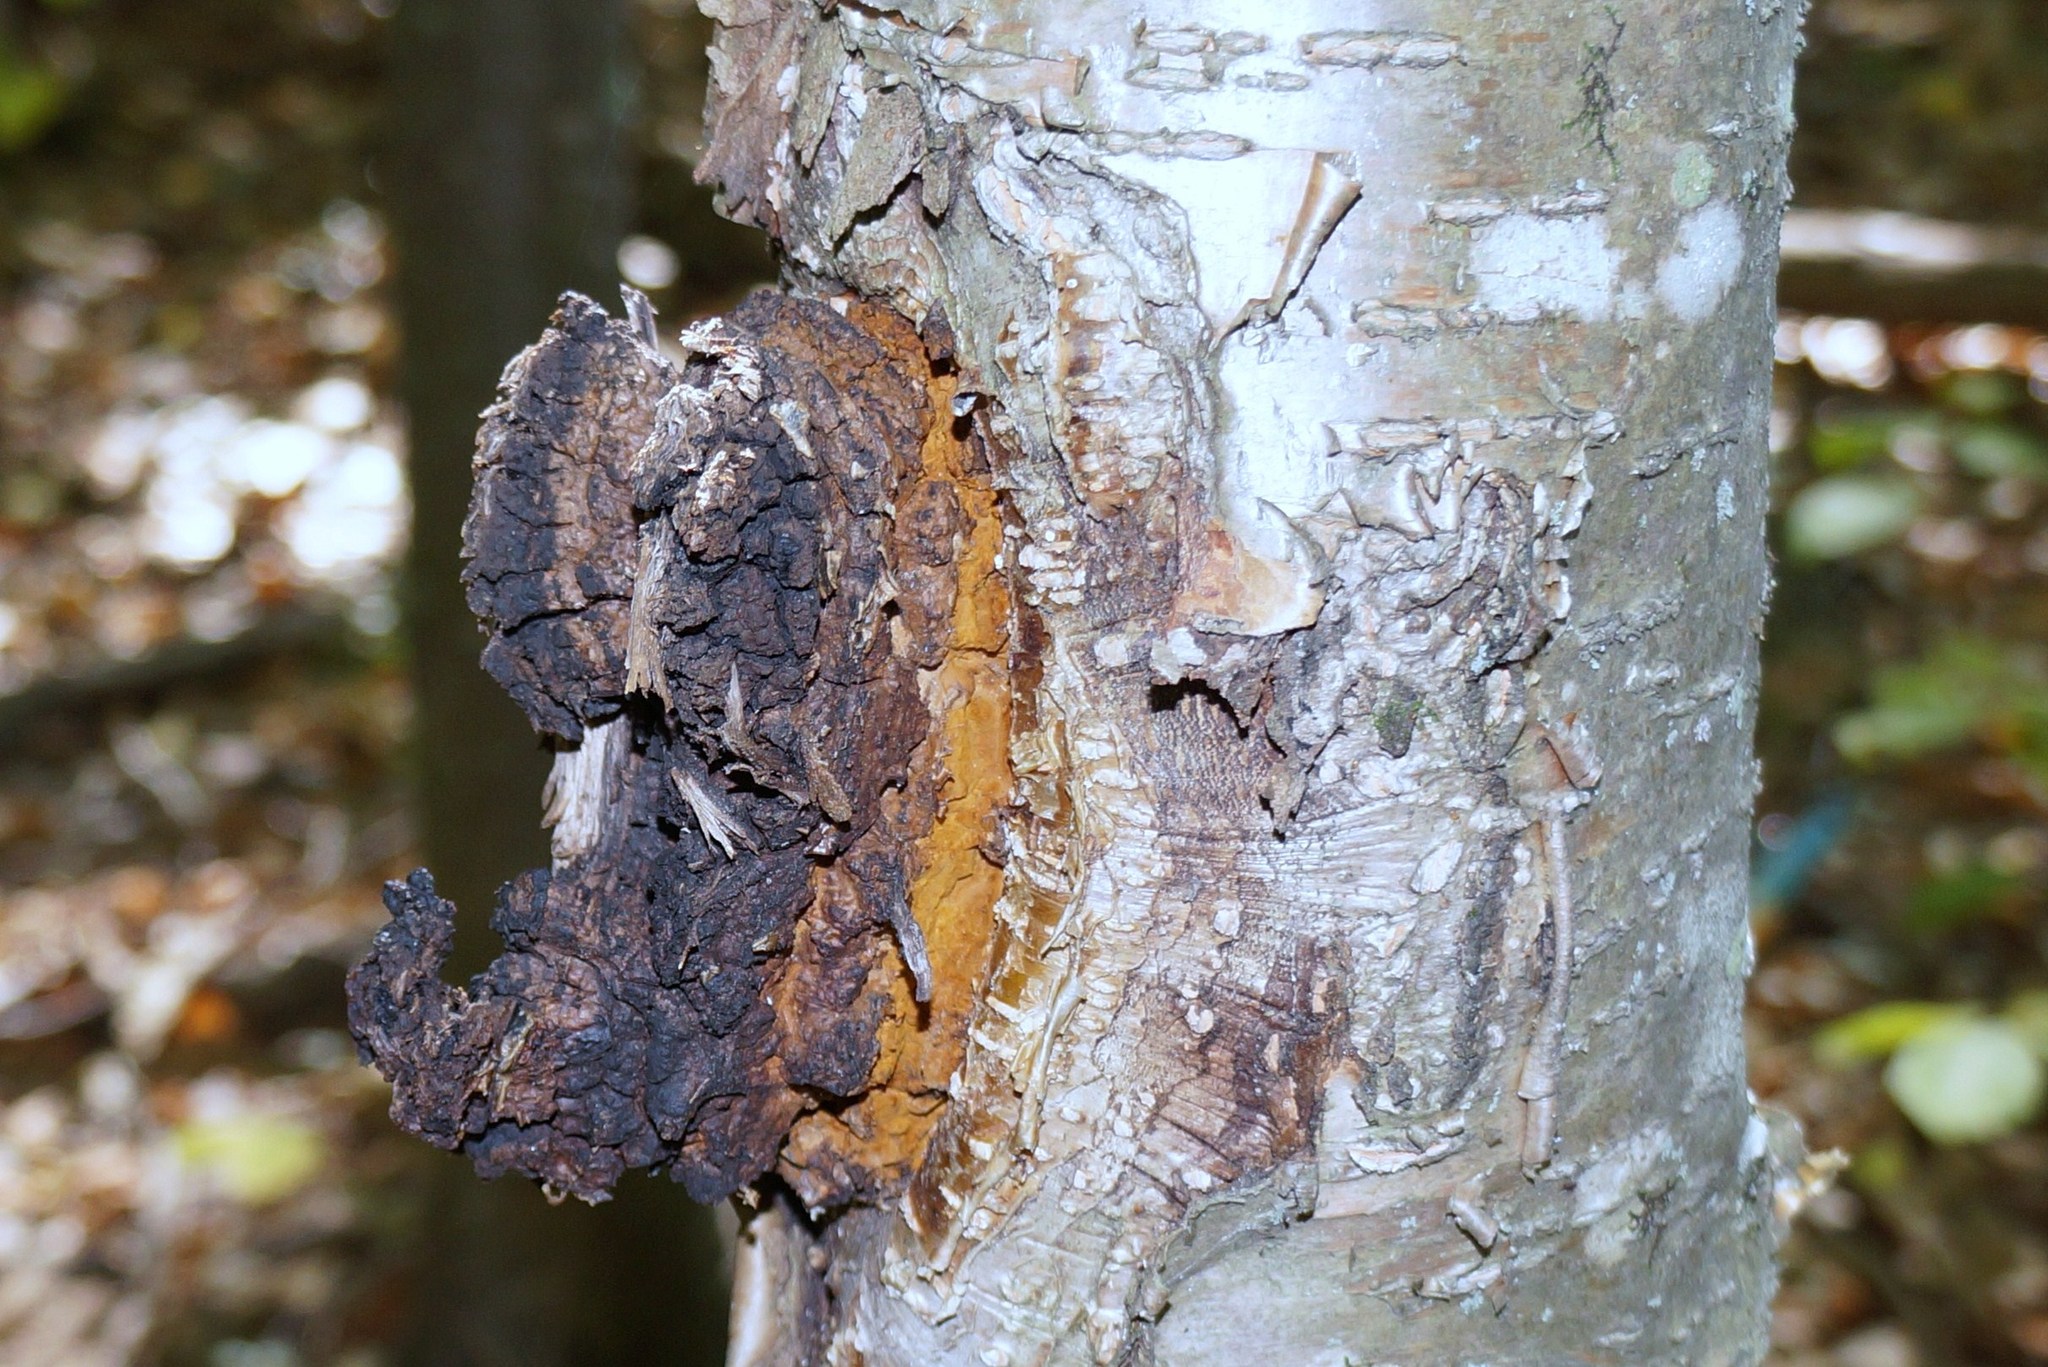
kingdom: Fungi
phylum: Basidiomycota
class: Agaricomycetes
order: Hymenochaetales
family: Hymenochaetaceae
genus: Inonotus
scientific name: Inonotus obliquus
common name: Chaga
